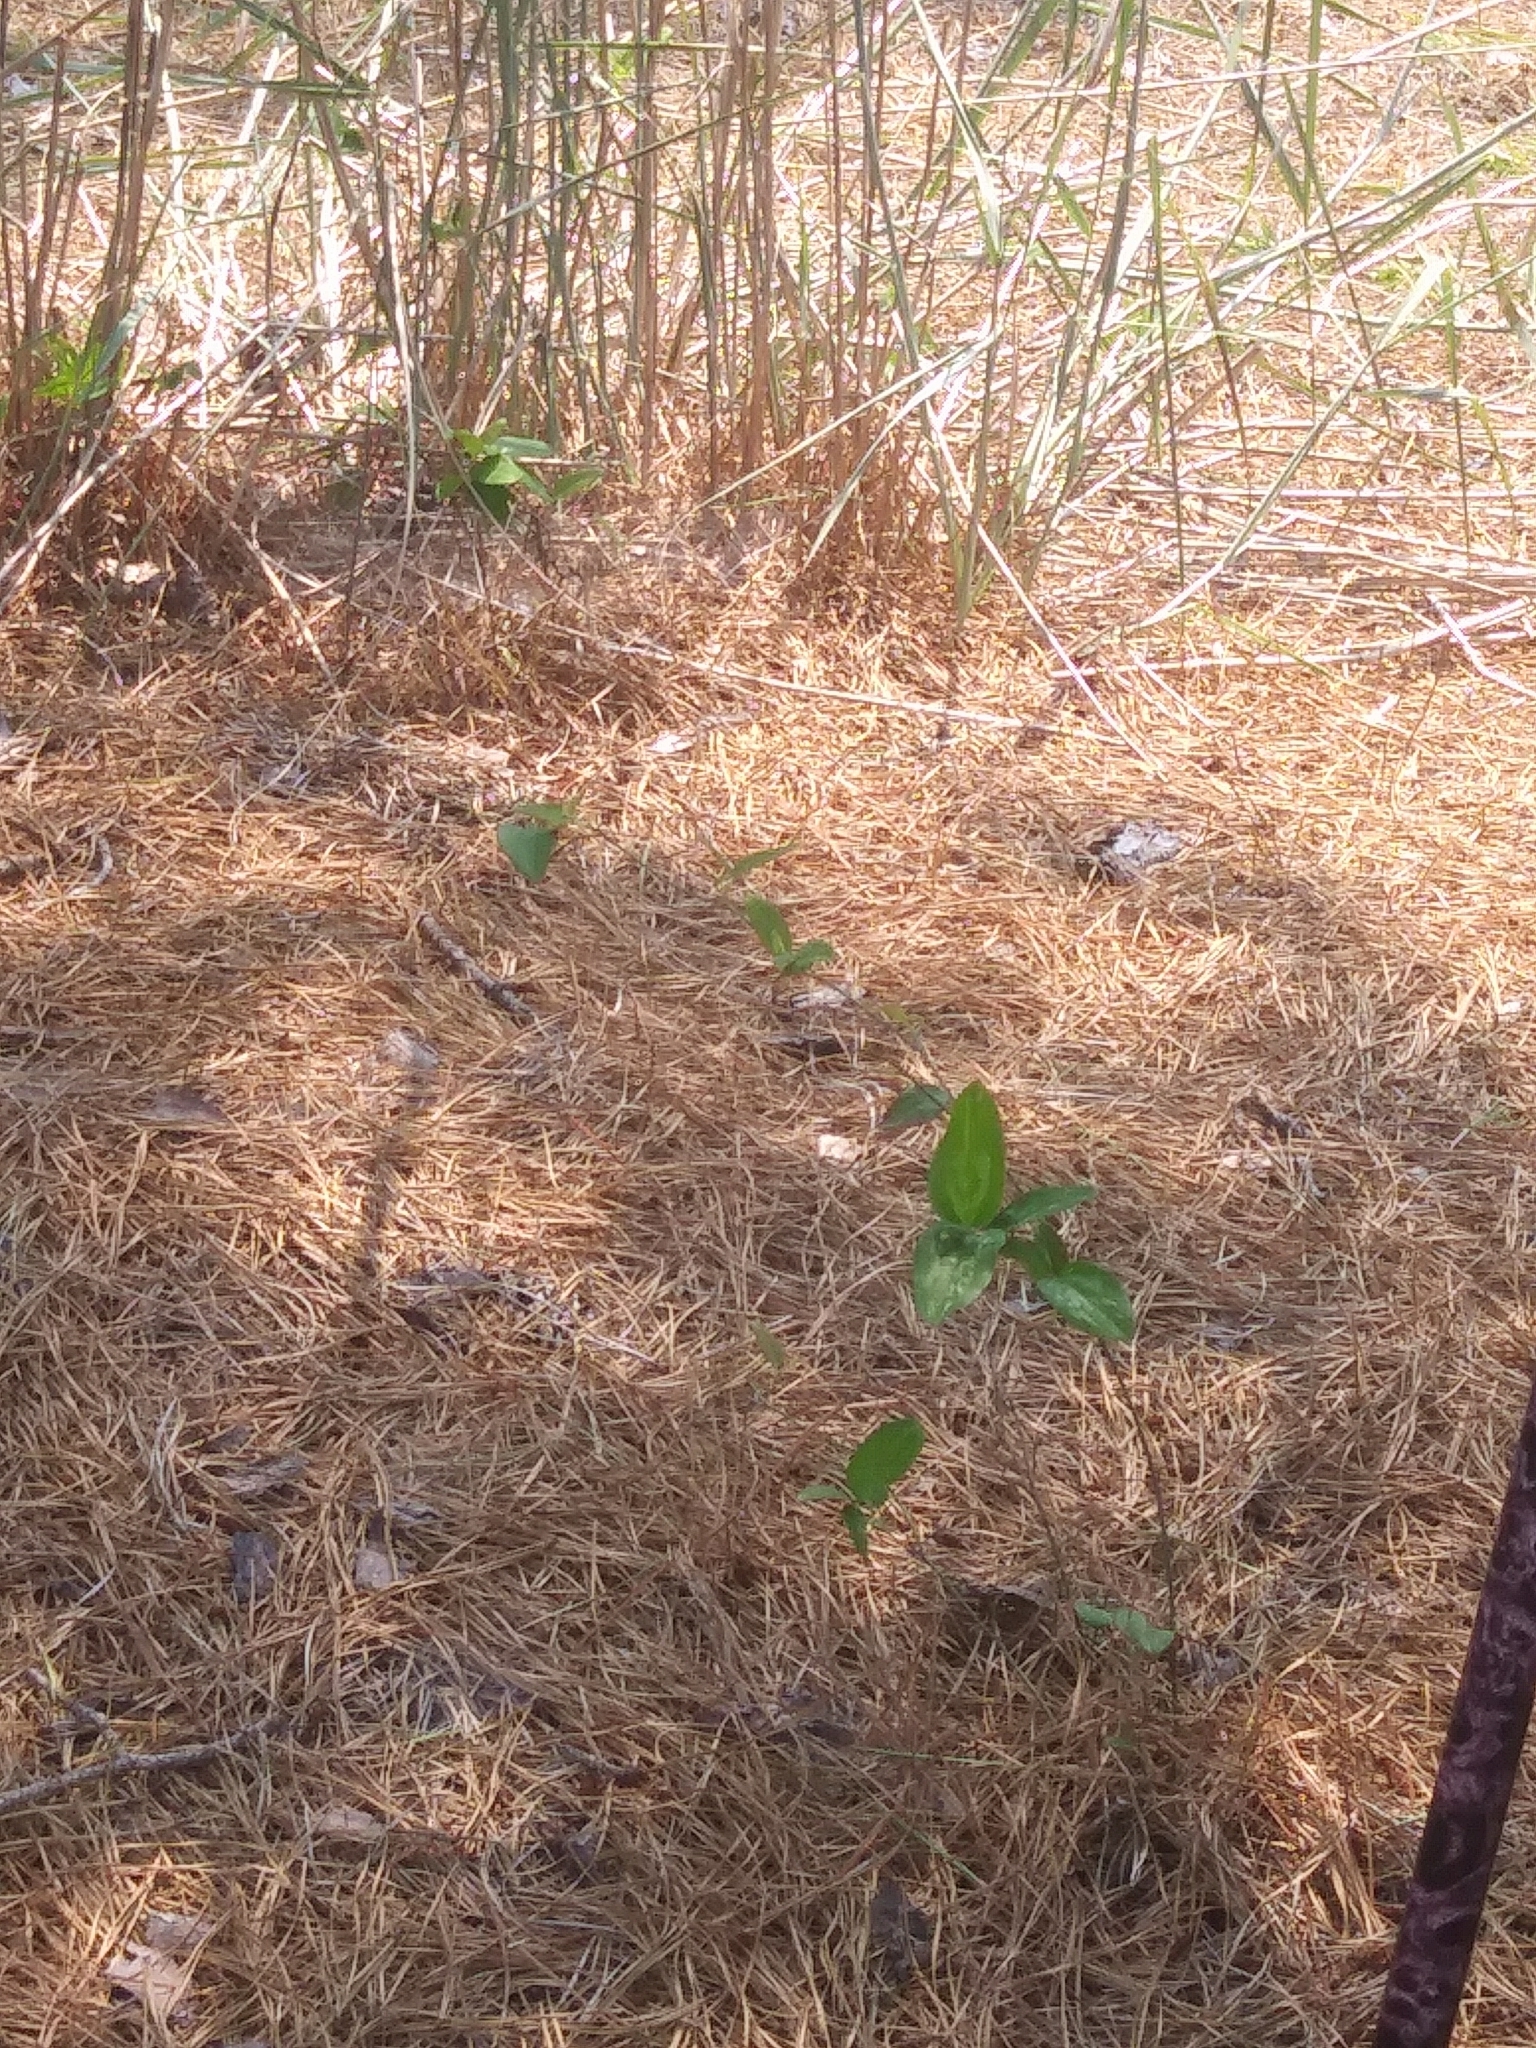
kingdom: Plantae
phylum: Tracheophyta
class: Liliopsida
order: Liliales
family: Smilacaceae
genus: Smilax
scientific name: Smilax glauca
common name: Cat greenbrier
